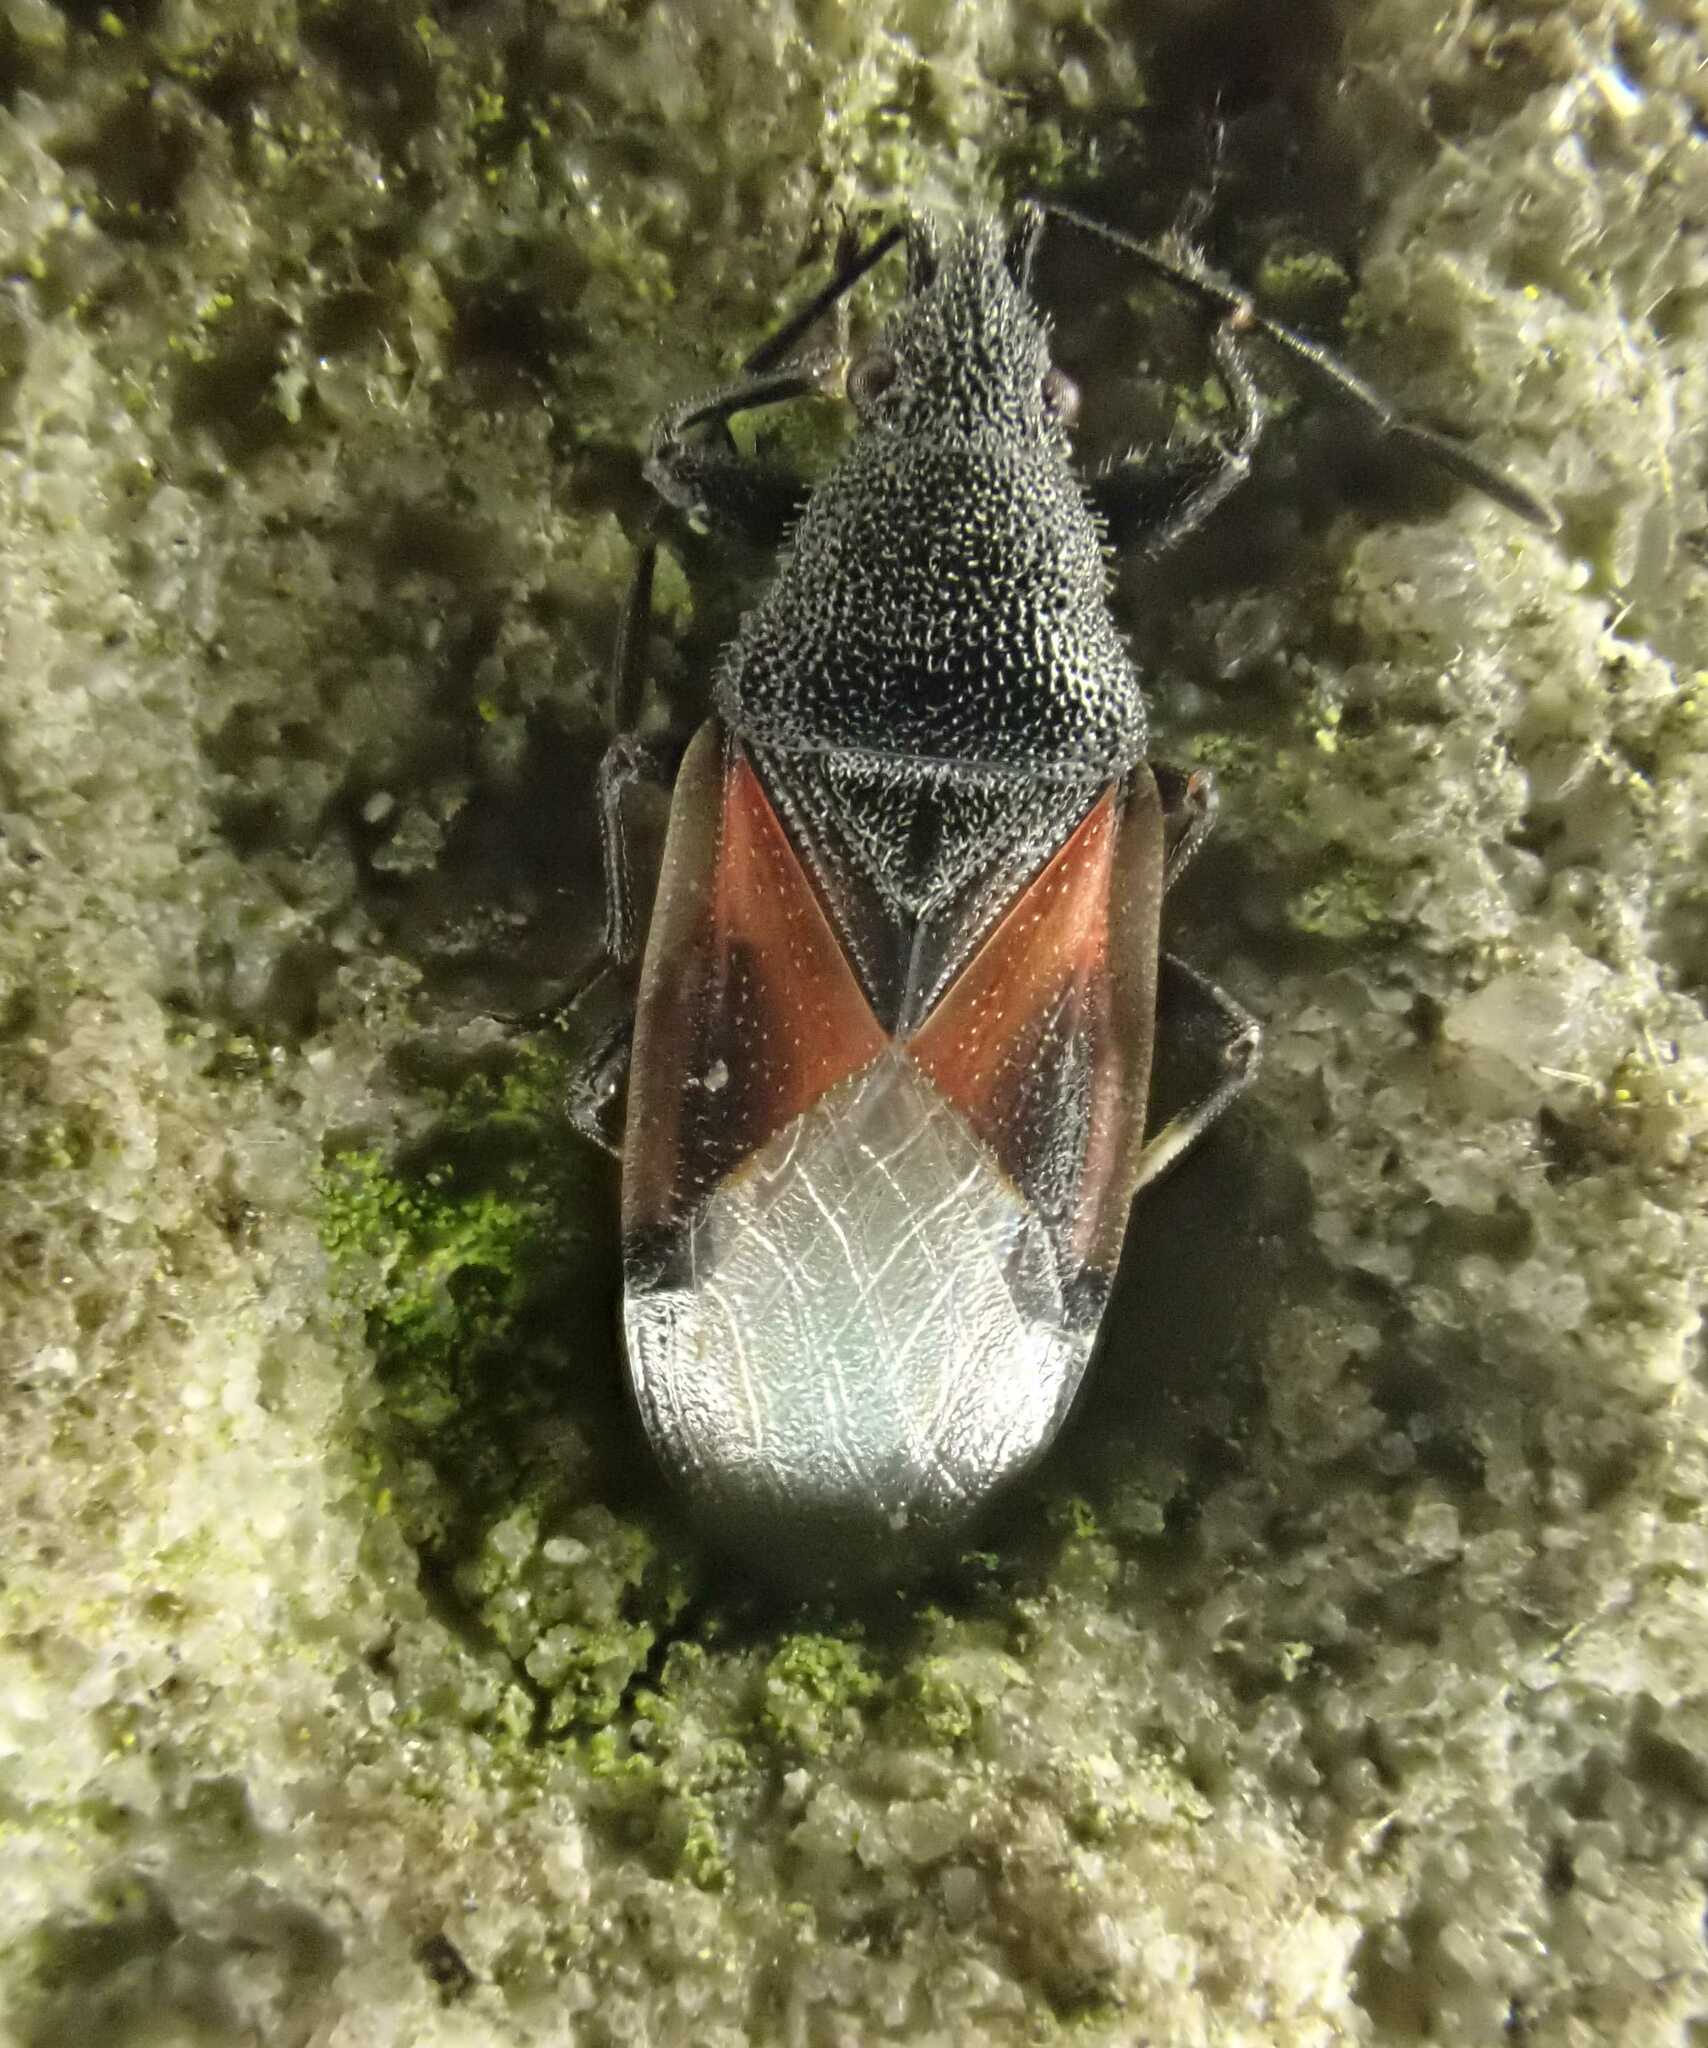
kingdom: Animalia
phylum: Arthropoda
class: Insecta
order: Hemiptera
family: Oxycarenidae
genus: Oxycarenus
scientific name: Oxycarenus lavaterae
